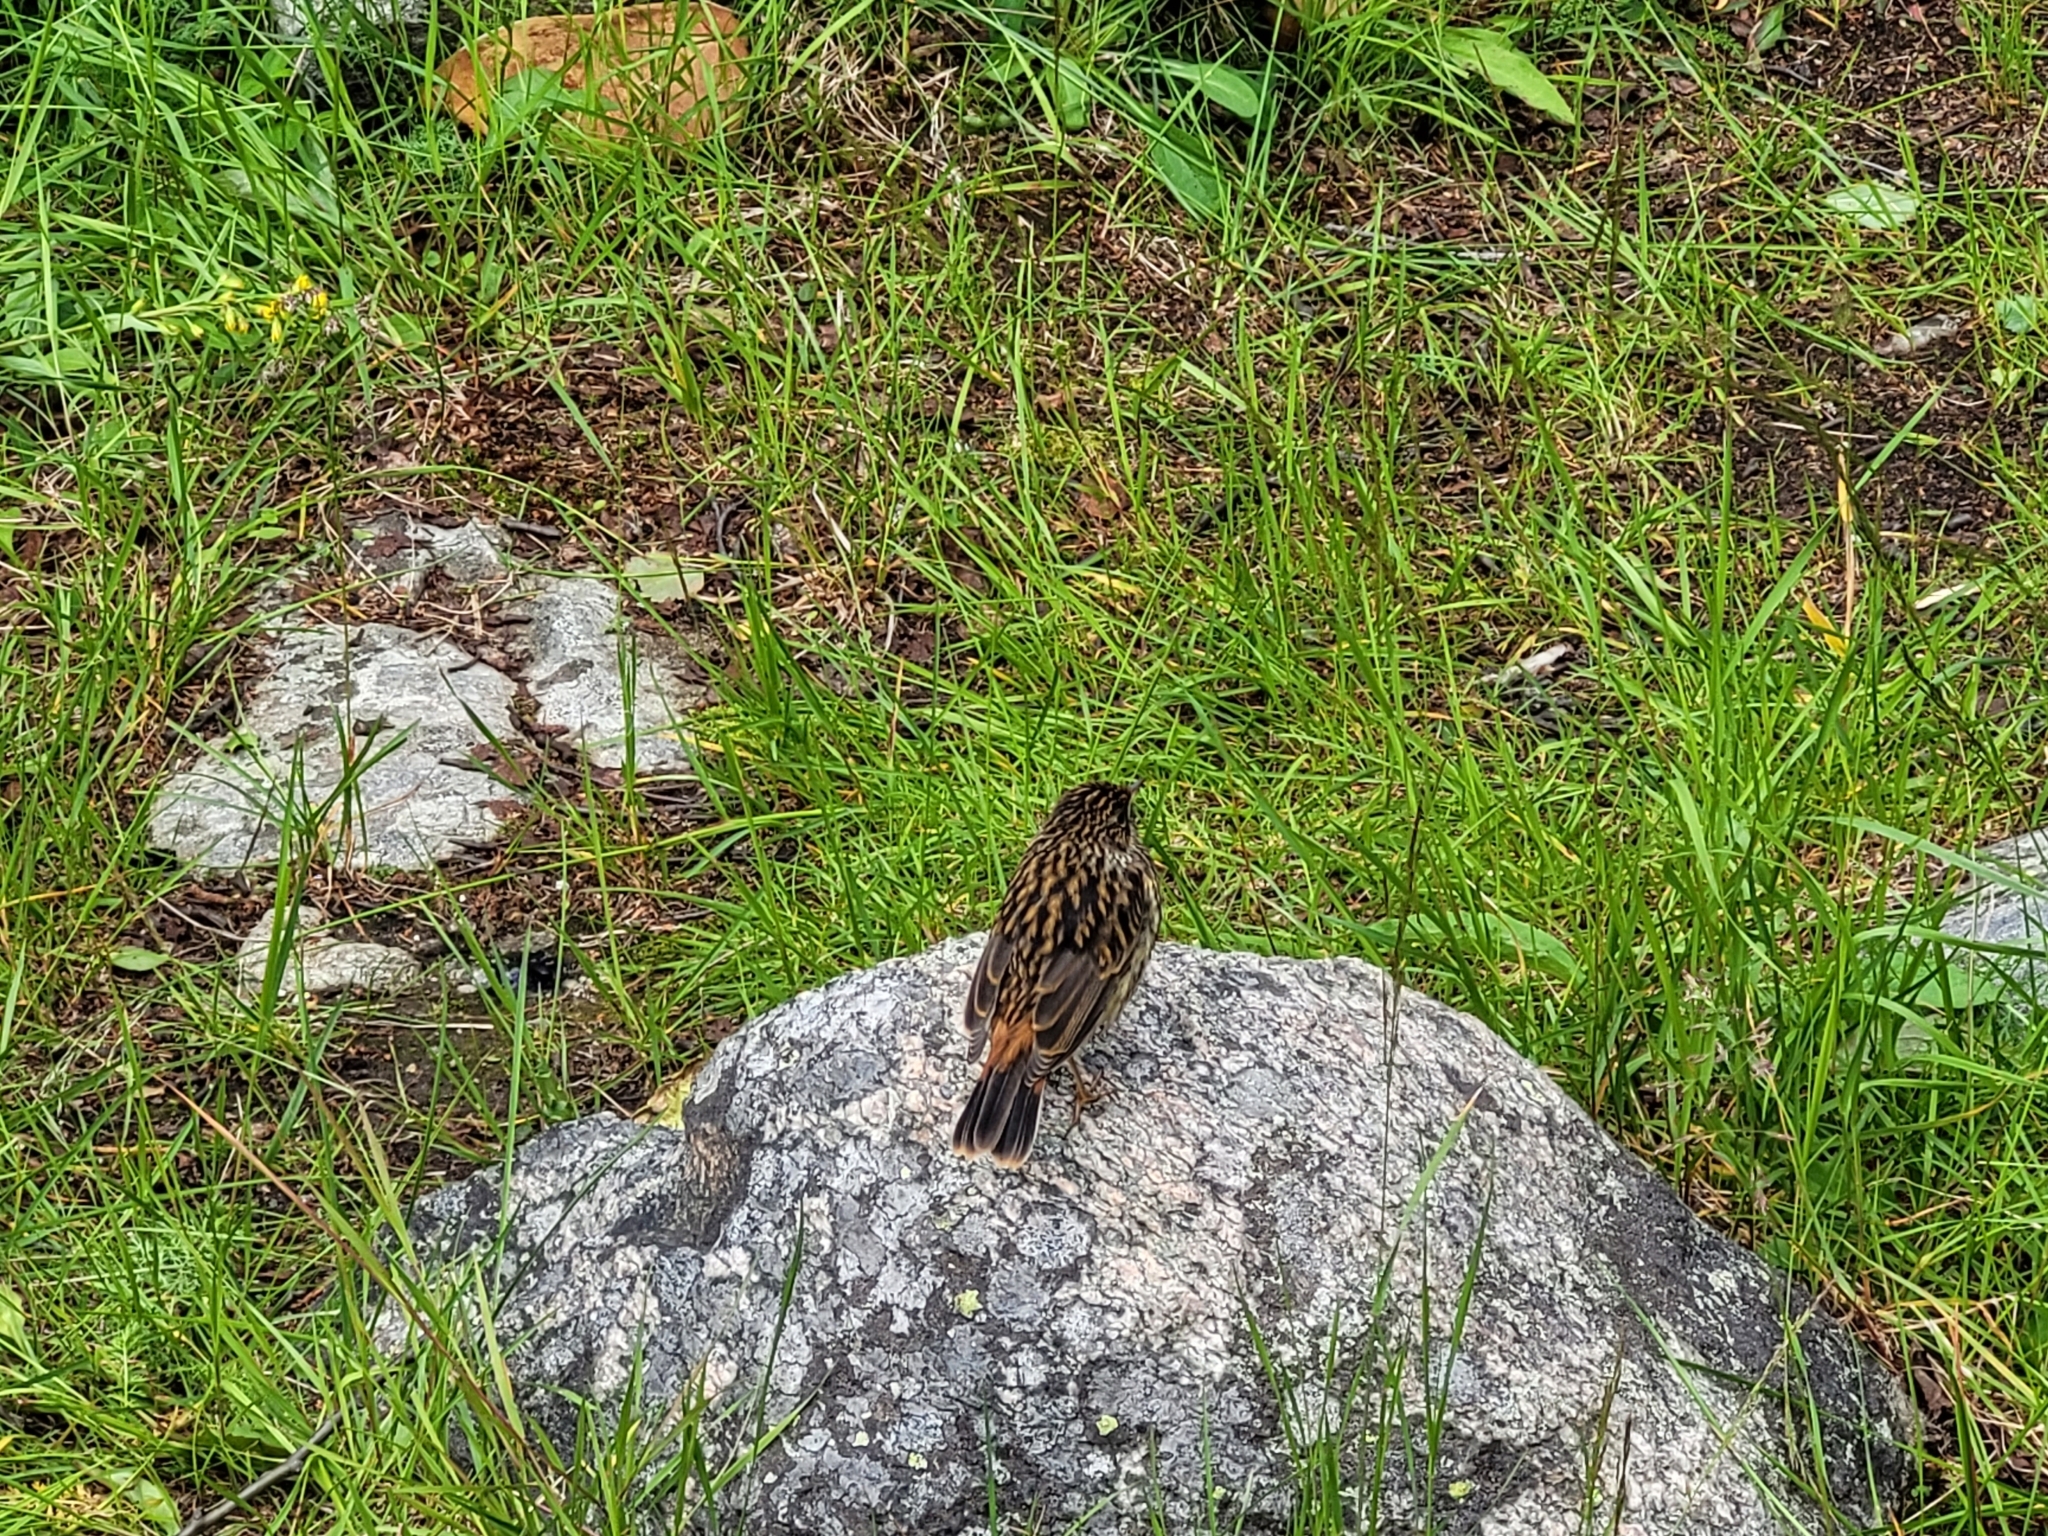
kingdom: Animalia
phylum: Chordata
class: Aves
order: Passeriformes
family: Muscicapidae
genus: Luscinia
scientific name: Luscinia svecica
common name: Bluethroat
